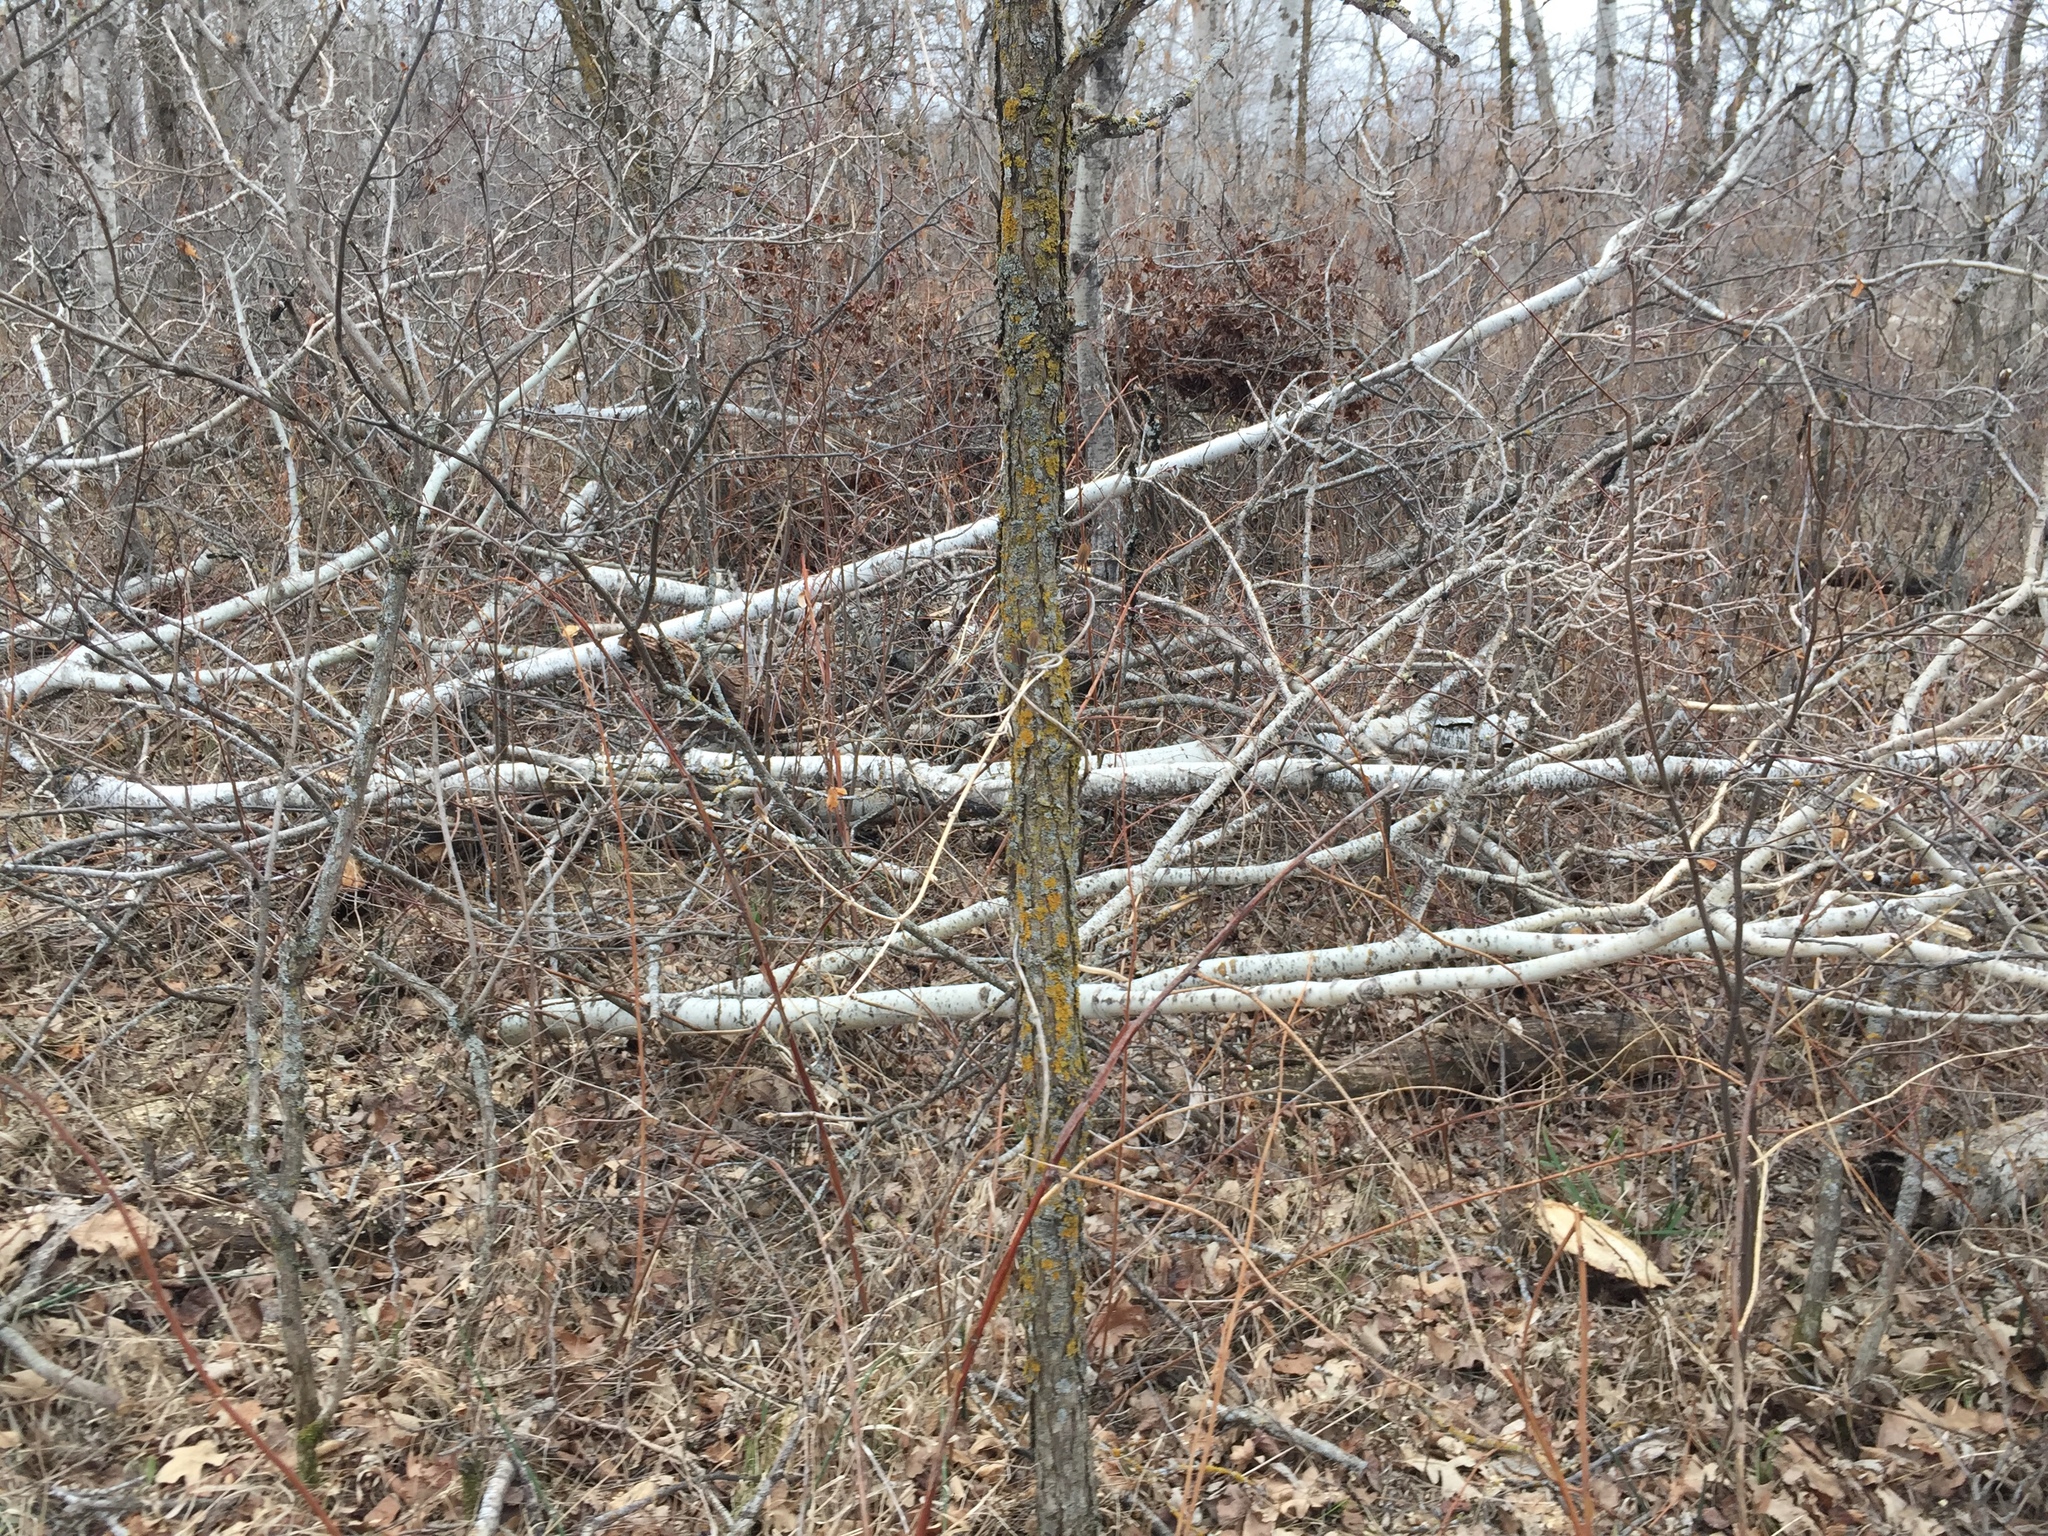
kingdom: Plantae
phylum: Tracheophyta
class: Magnoliopsida
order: Malpighiales
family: Salicaceae
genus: Populus
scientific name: Populus tremuloides
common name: Quaking aspen
